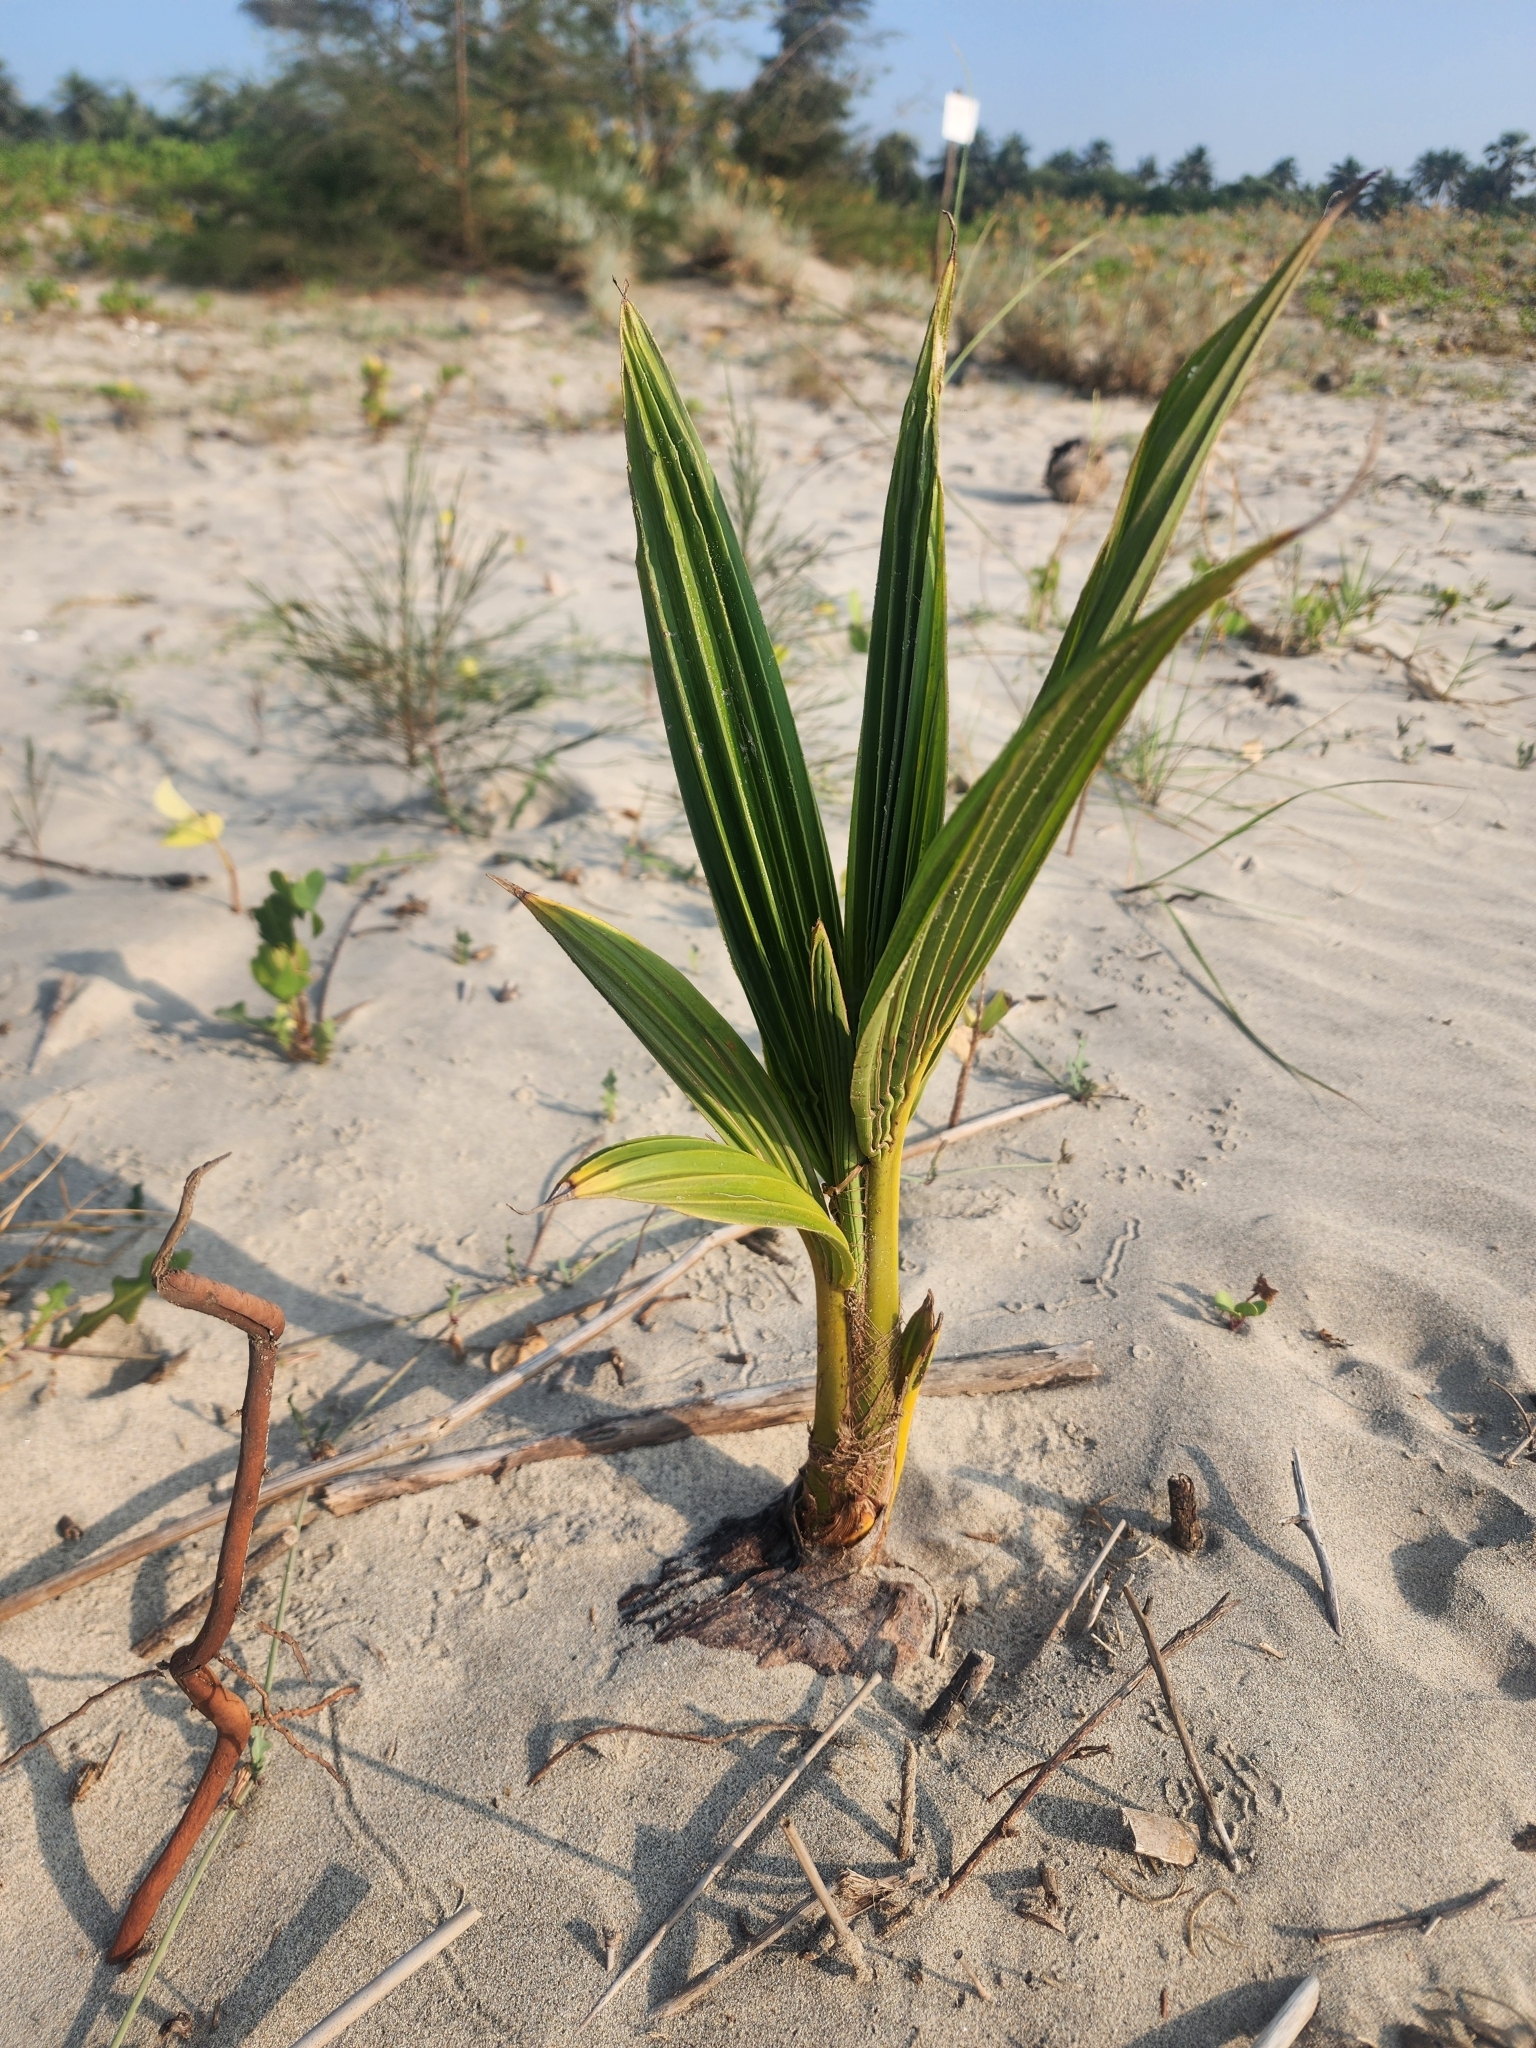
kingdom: Plantae
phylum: Tracheophyta
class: Liliopsida
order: Arecales
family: Arecaceae
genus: Cocos
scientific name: Cocos nucifera
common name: Coconut palm
